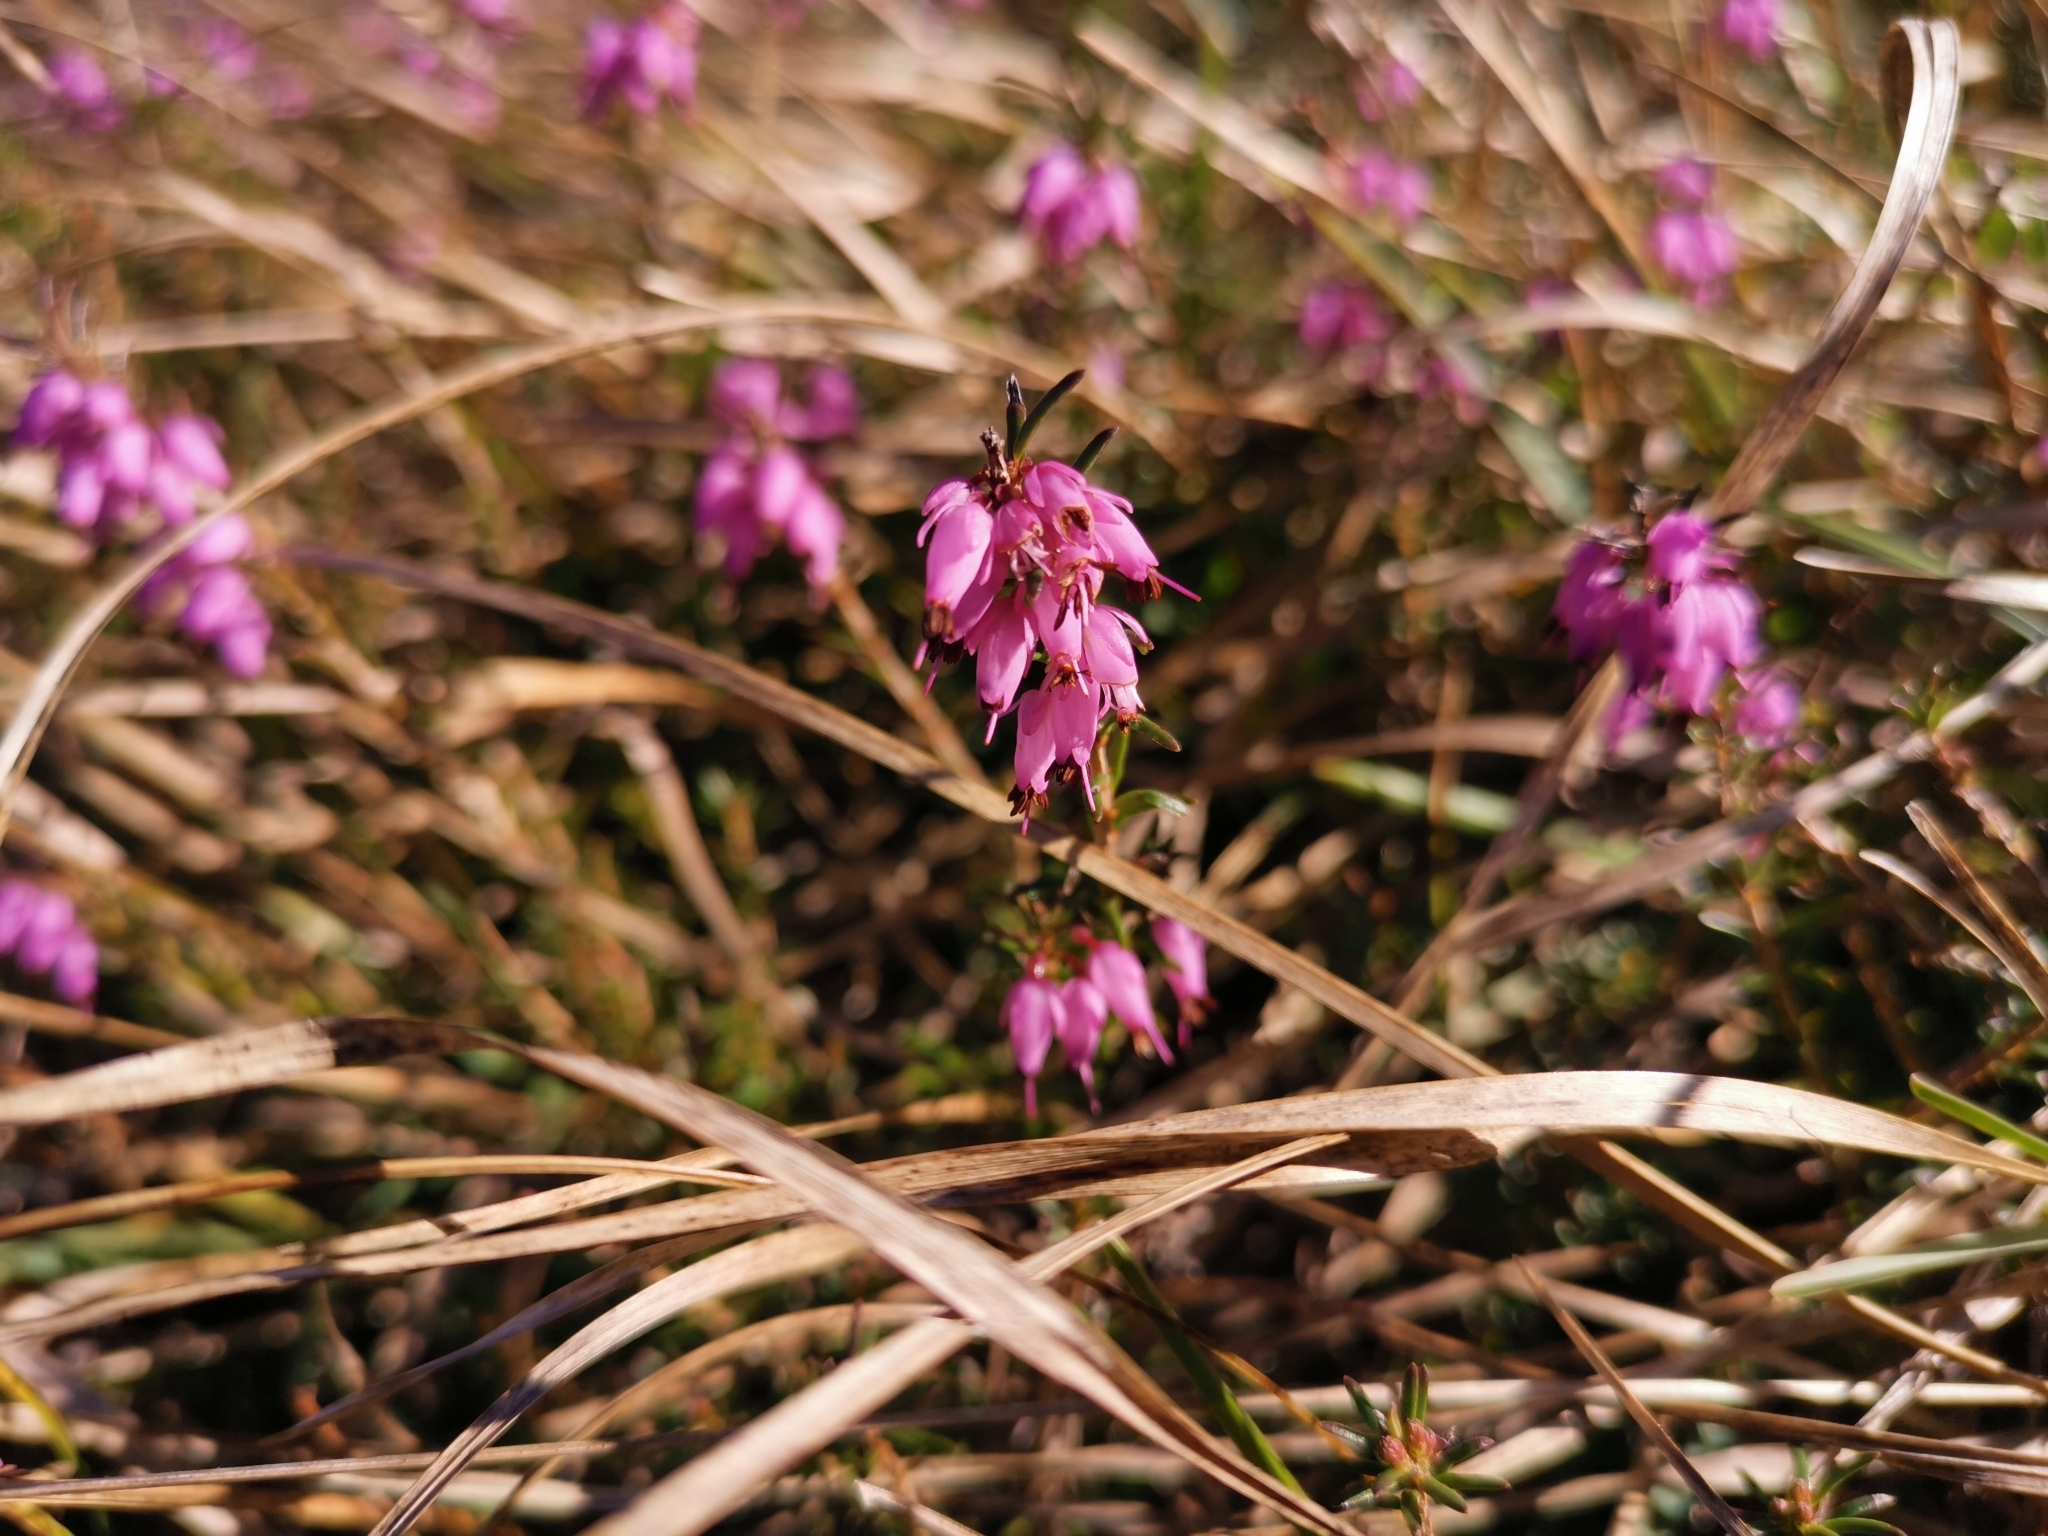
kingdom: Plantae
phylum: Tracheophyta
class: Magnoliopsida
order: Ericales
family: Ericaceae
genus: Erica
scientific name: Erica carnea
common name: Winter heath
